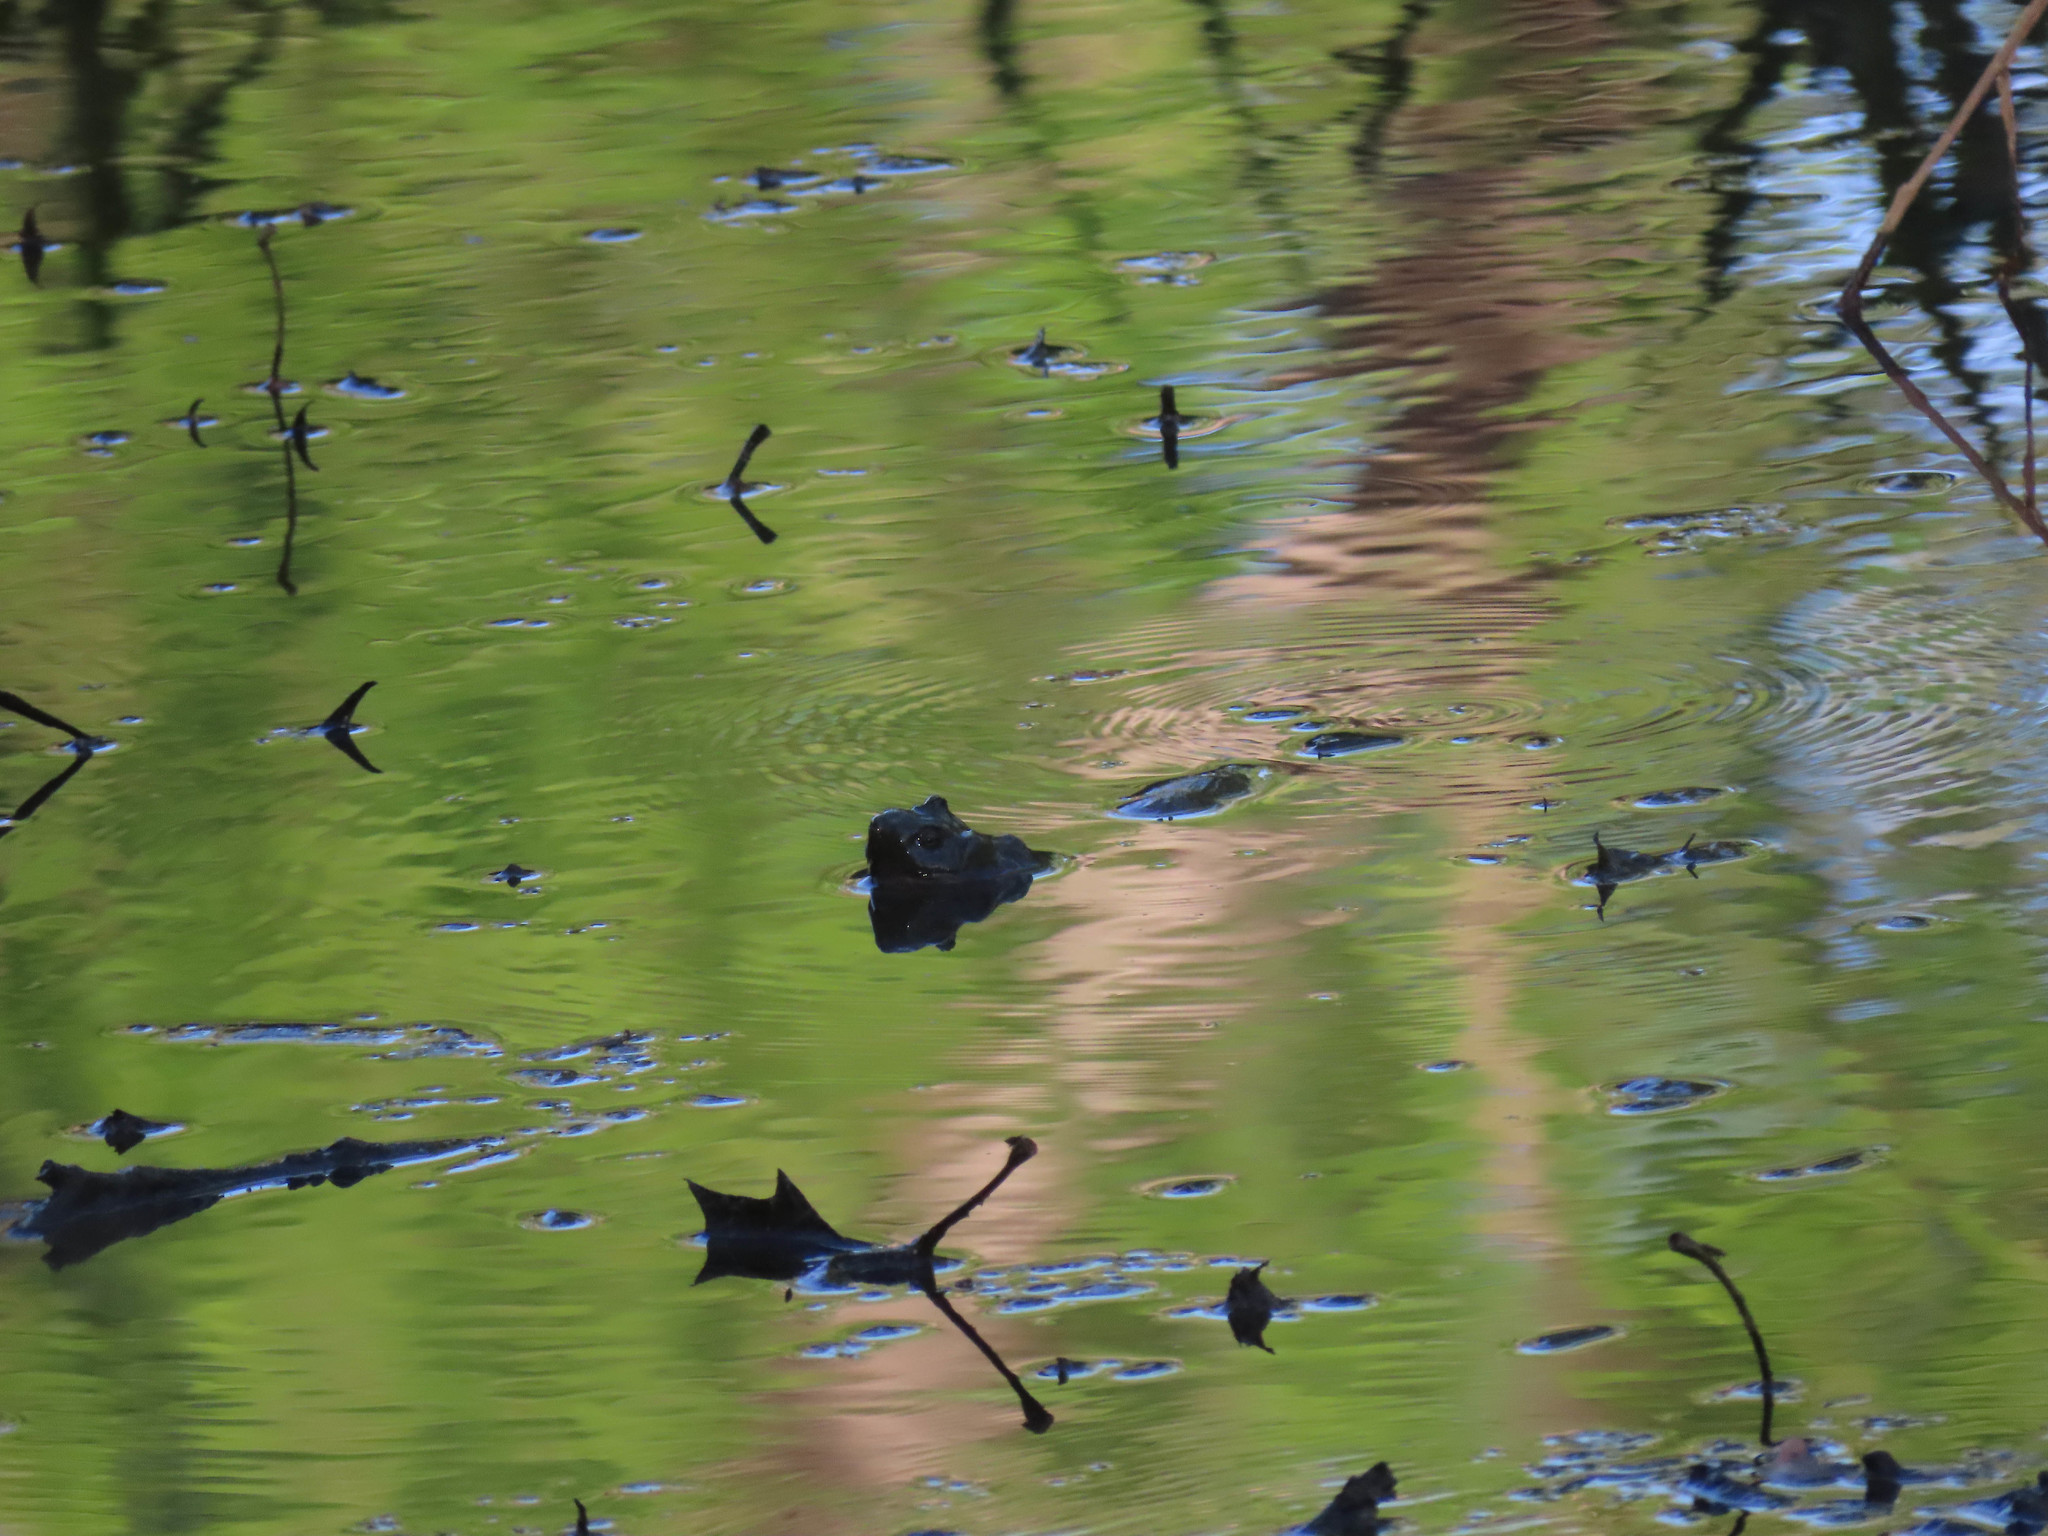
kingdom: Animalia
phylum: Chordata
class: Testudines
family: Chelydridae
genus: Chelydra
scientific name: Chelydra serpentina
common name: Common snapping turtle
